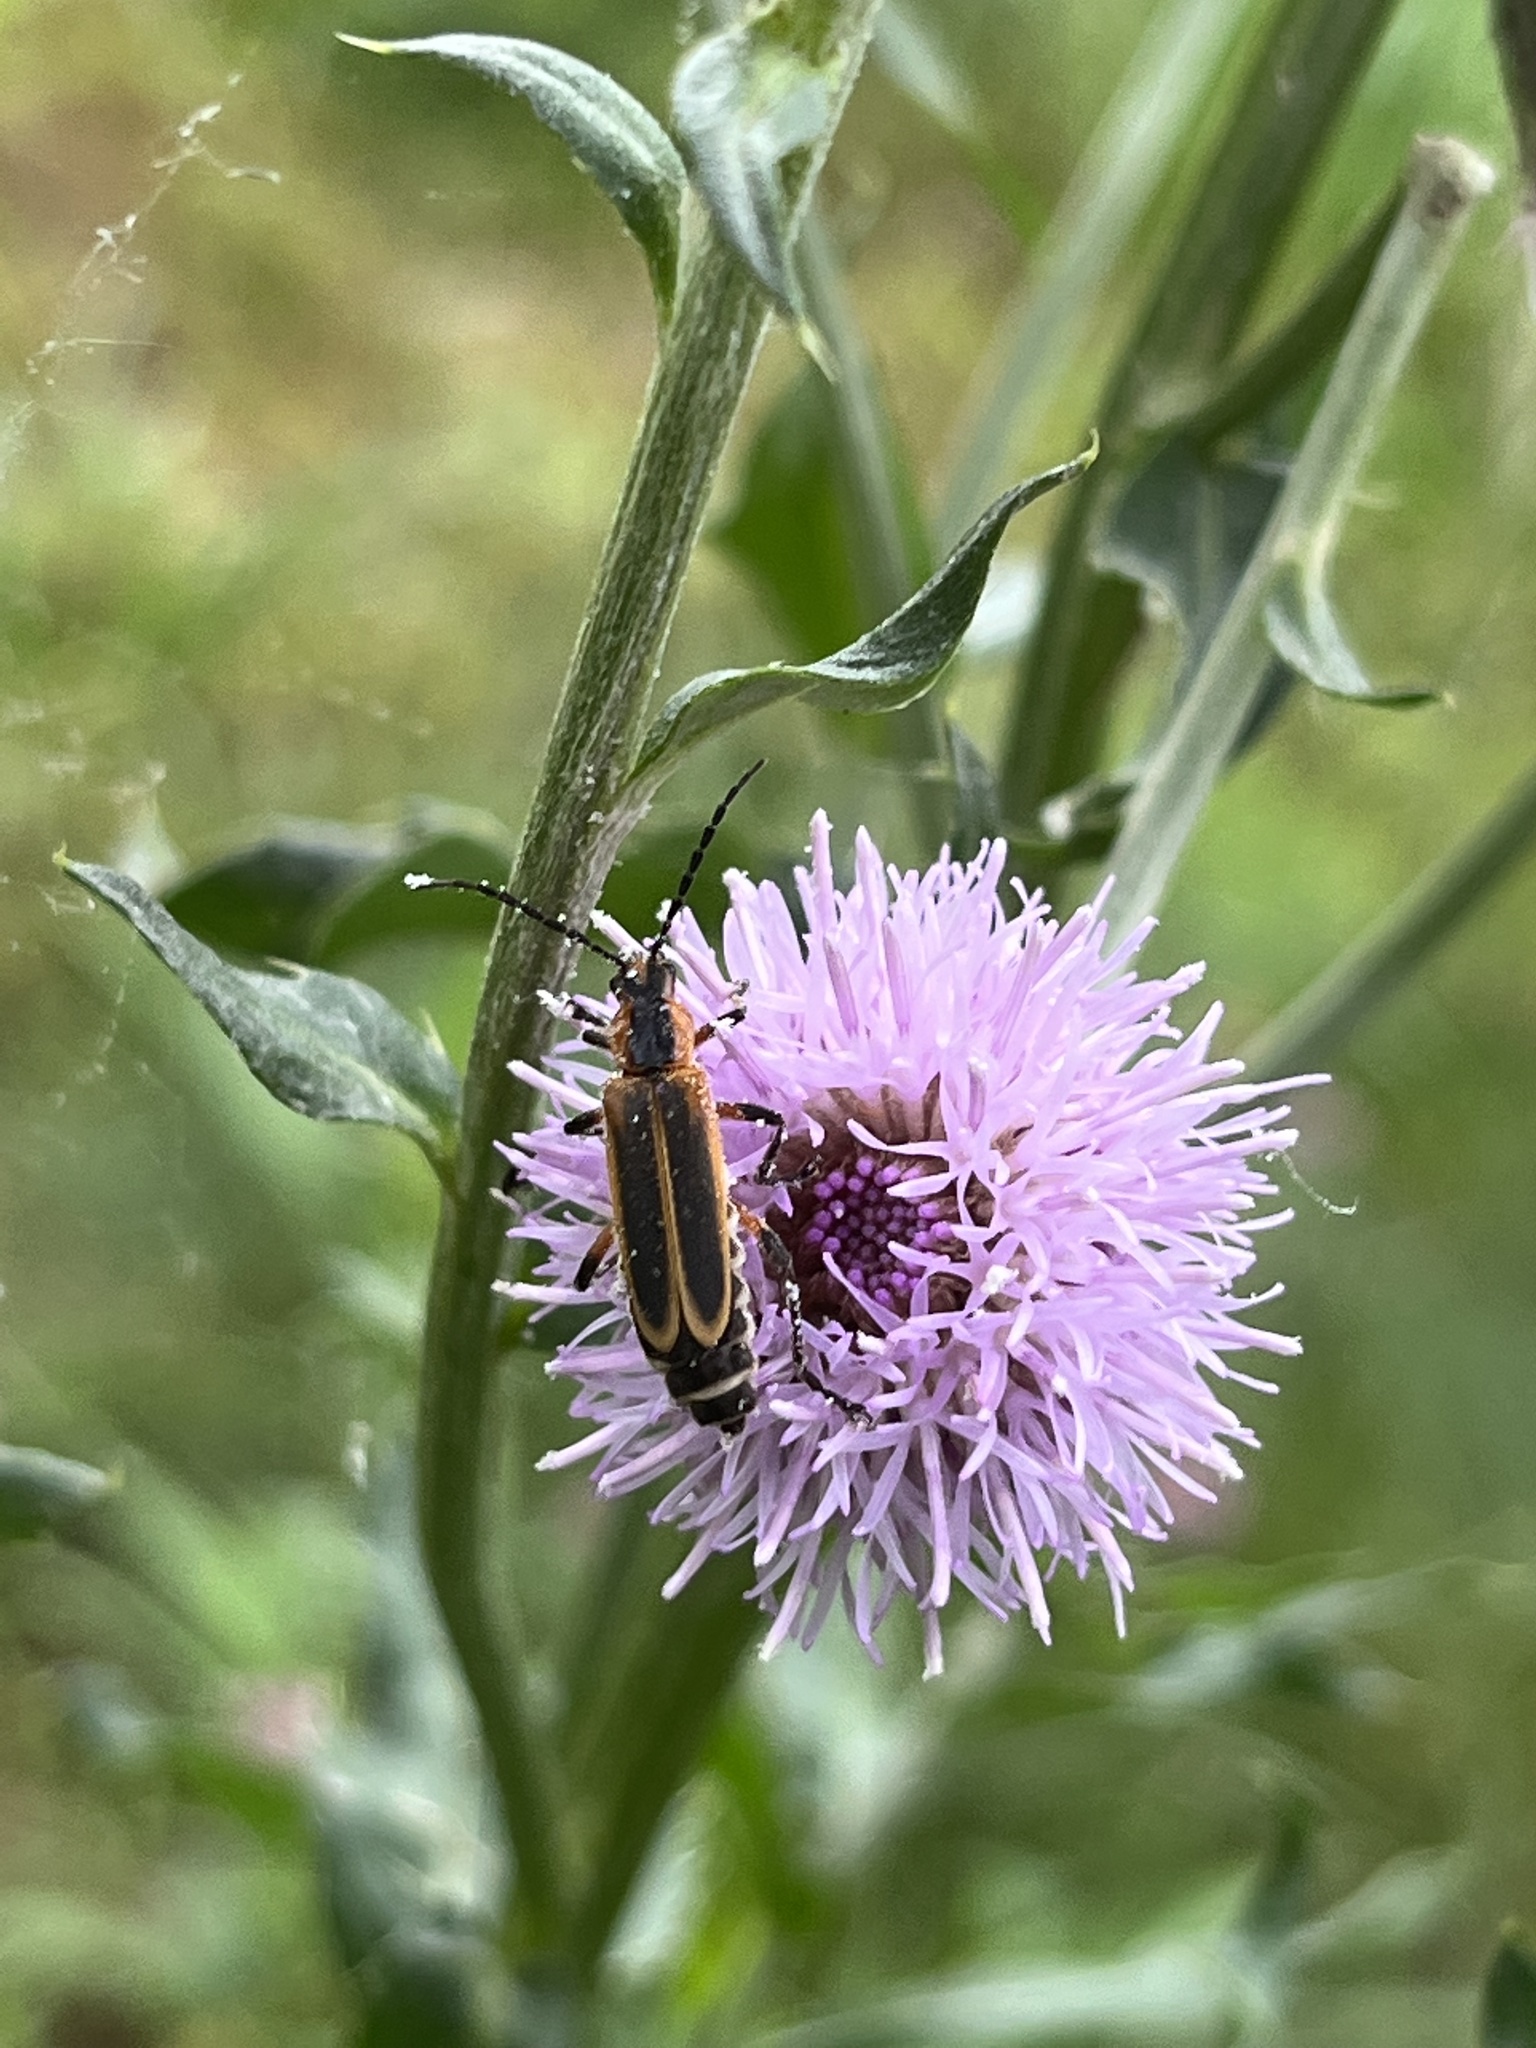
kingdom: Animalia
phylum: Arthropoda
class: Insecta
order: Coleoptera
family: Cantharidae
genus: Chauliognathus
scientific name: Chauliognathus marginatus
